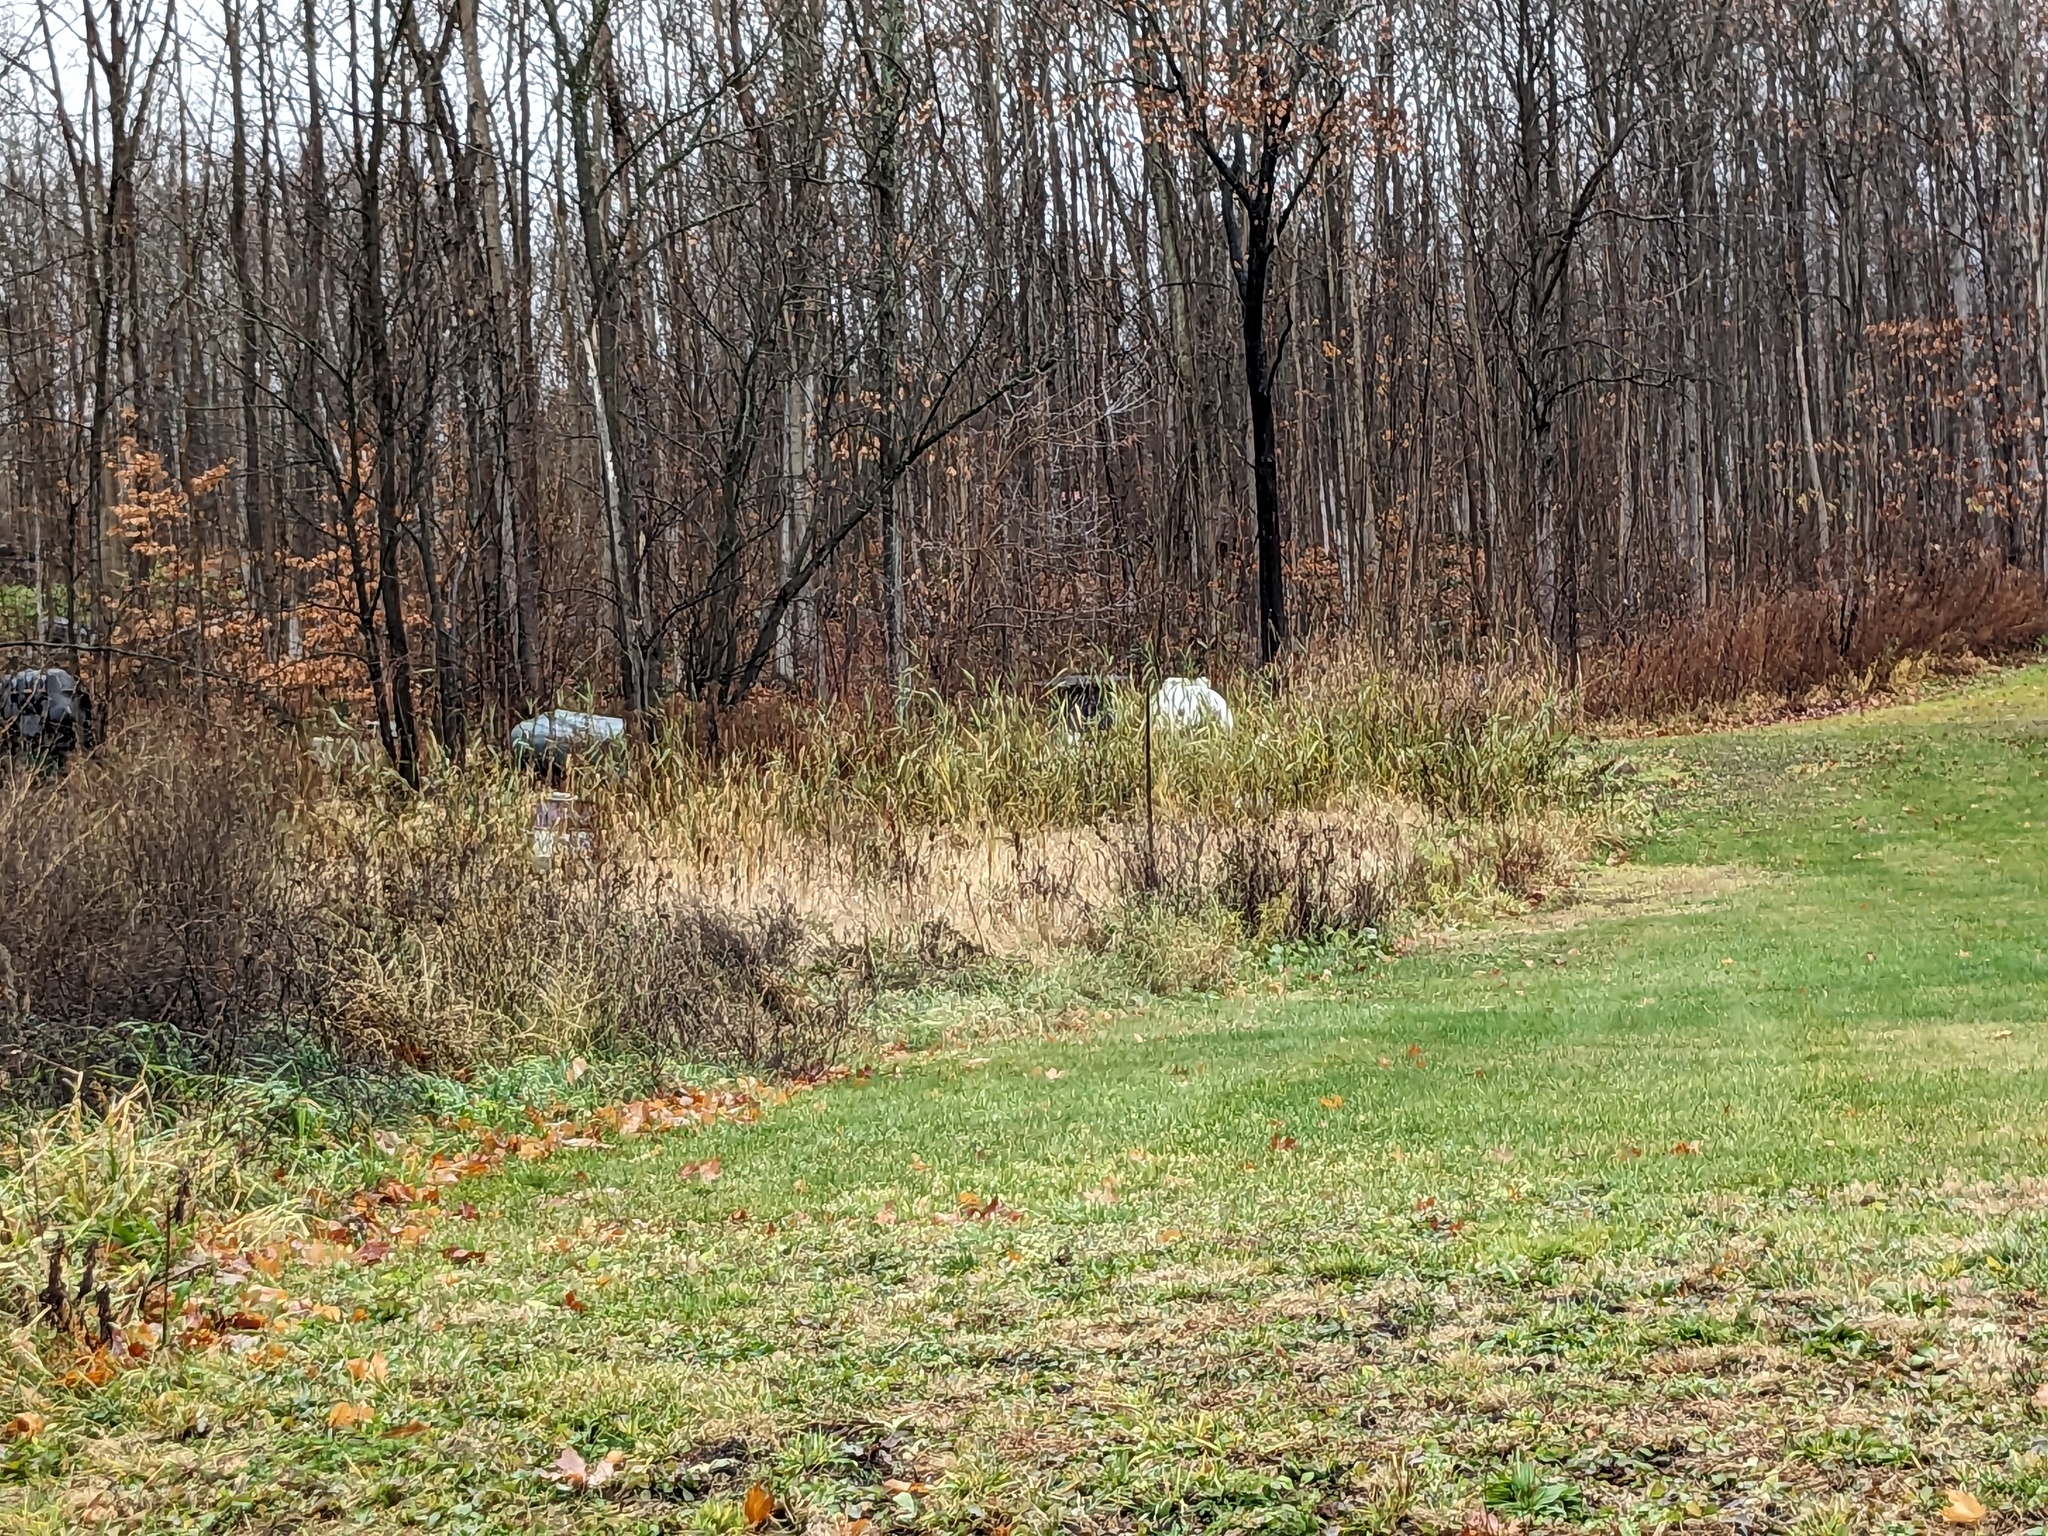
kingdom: Plantae
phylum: Tracheophyta
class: Liliopsida
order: Poales
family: Poaceae
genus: Phragmites
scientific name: Phragmites australis
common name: Common reed
